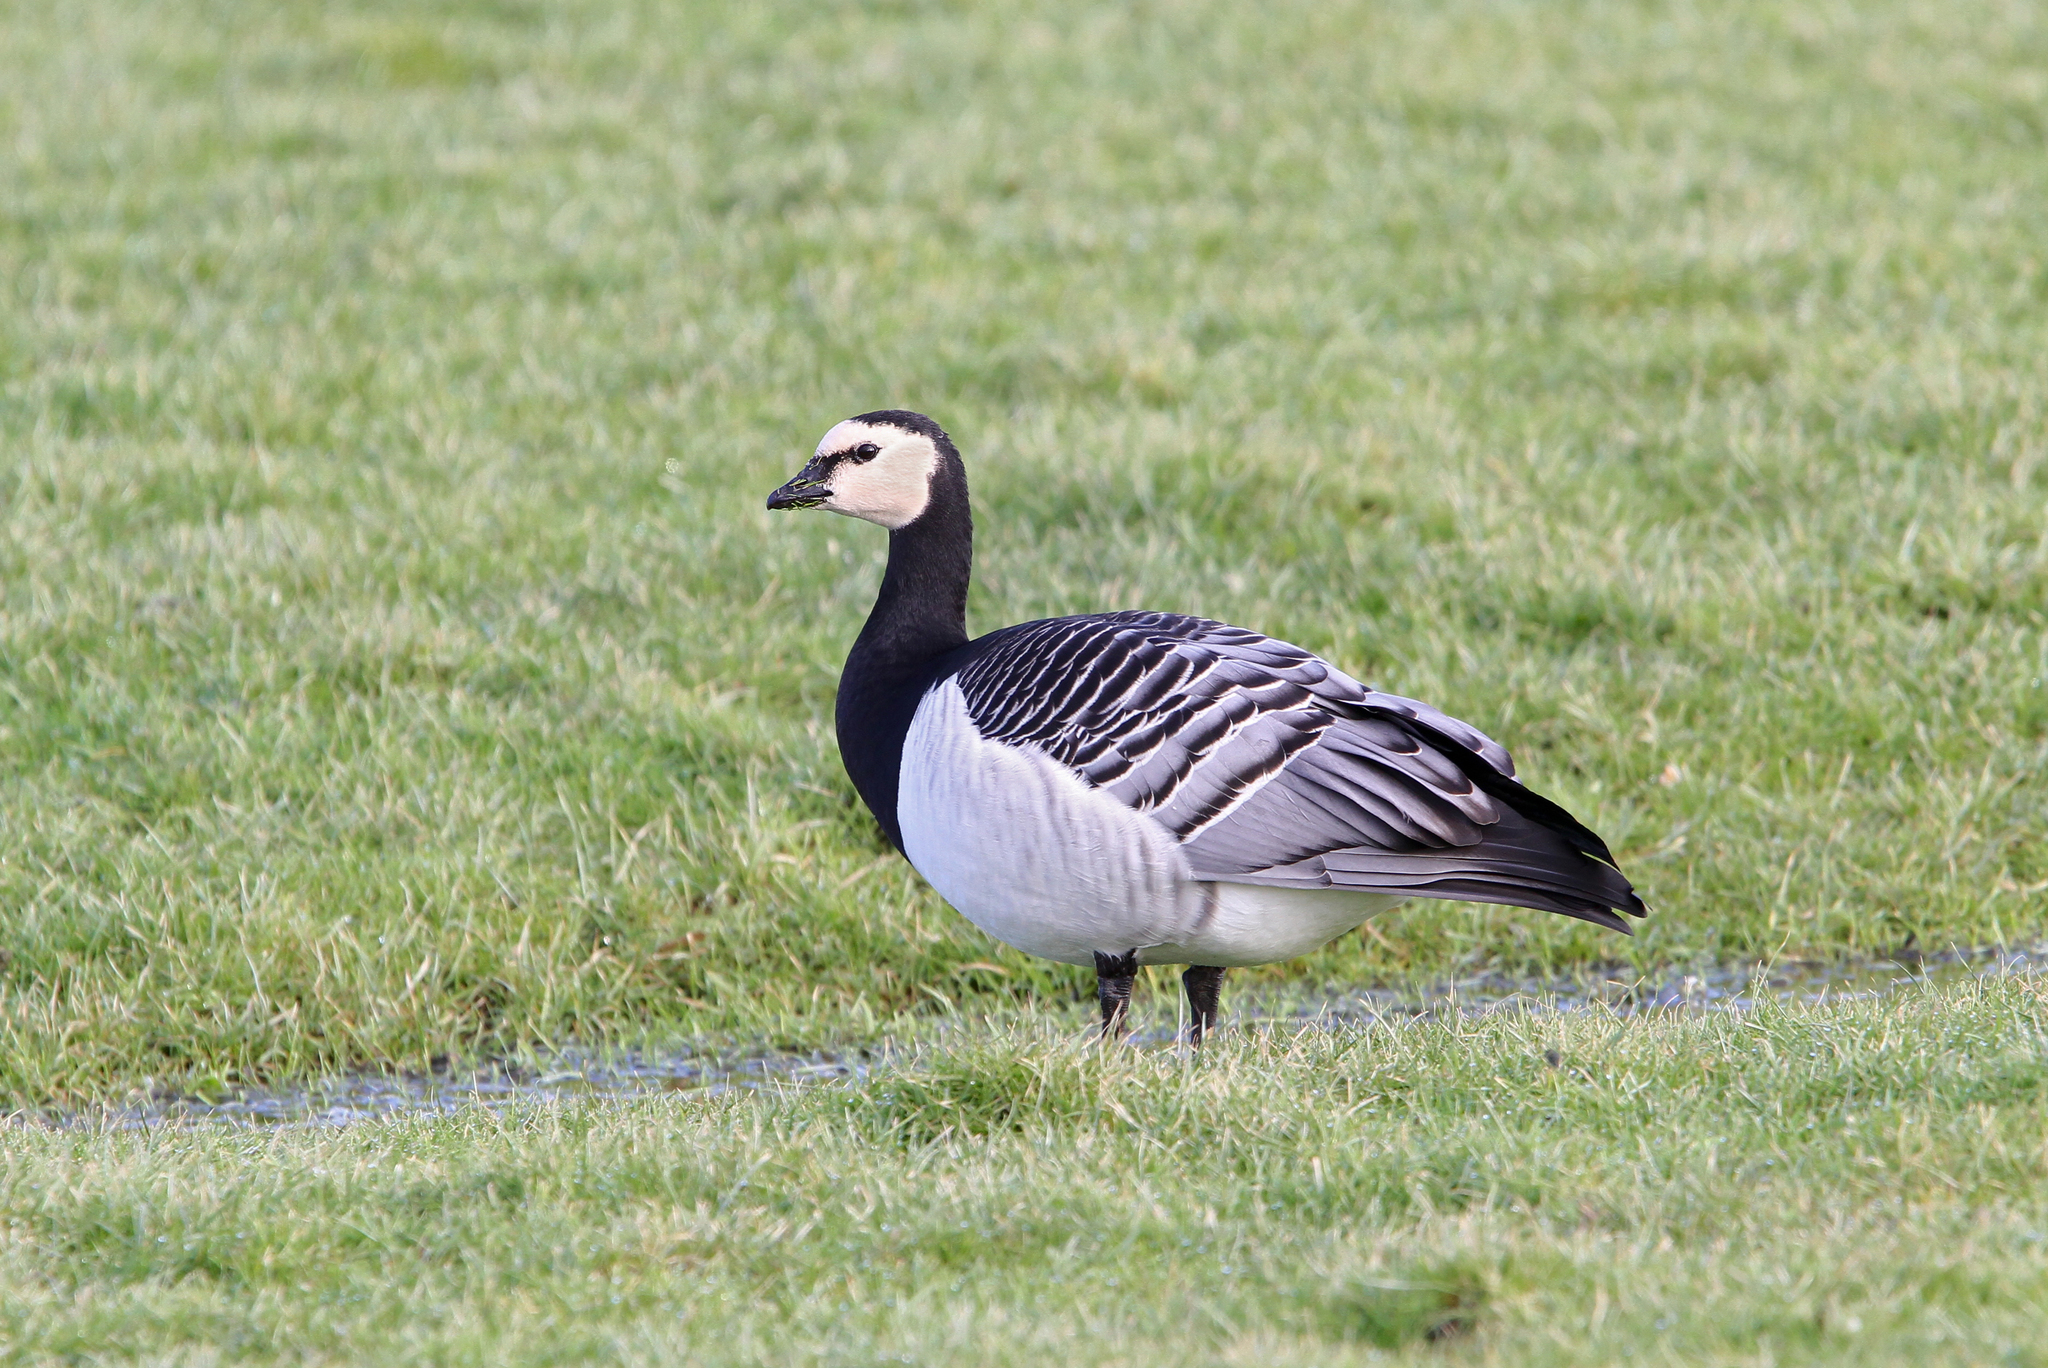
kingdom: Animalia
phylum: Chordata
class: Aves
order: Anseriformes
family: Anatidae
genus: Branta
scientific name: Branta leucopsis
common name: Barnacle goose
